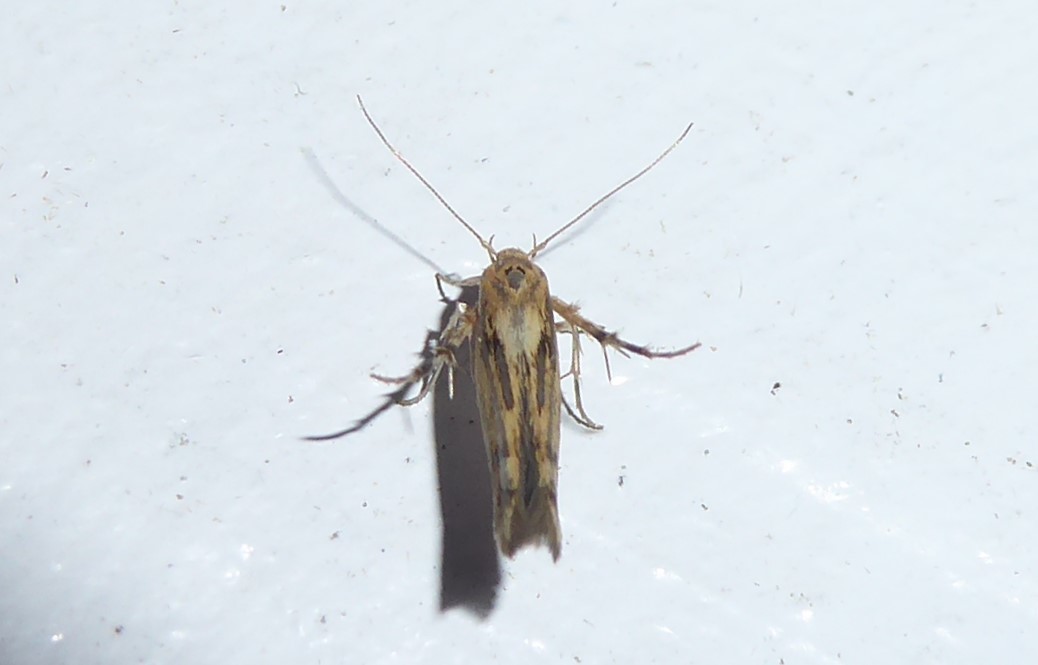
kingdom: Animalia
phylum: Arthropoda
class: Insecta
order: Lepidoptera
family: Stathmopodidae
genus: Stathmopoda
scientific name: Stathmopoda plumbiflua
